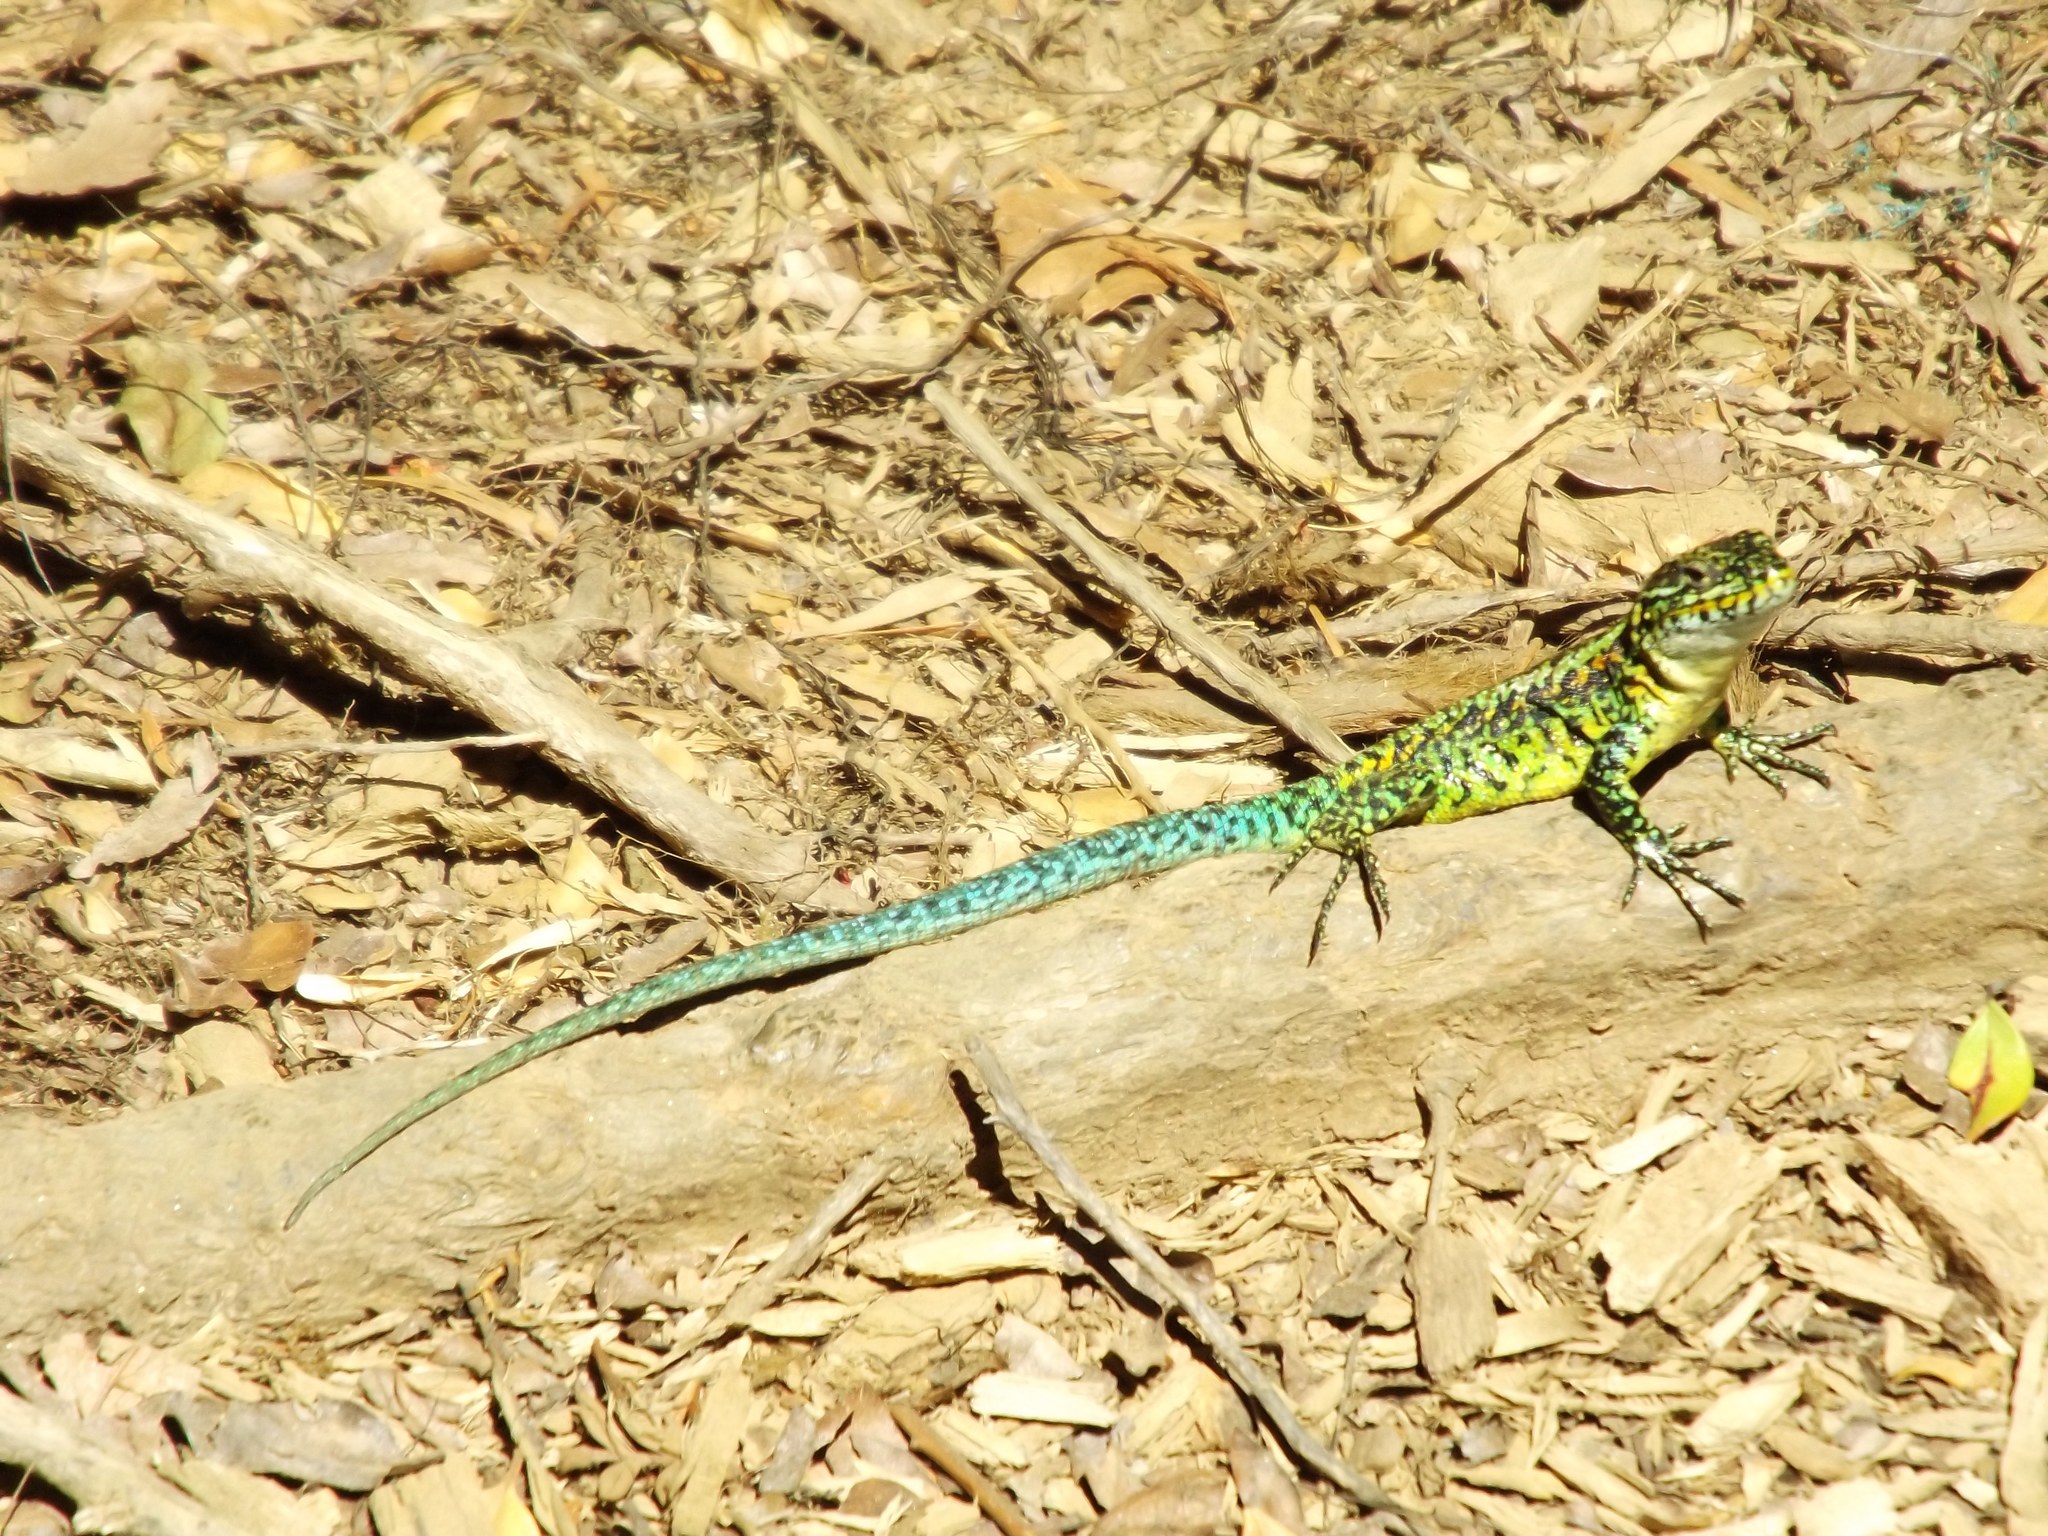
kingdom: Animalia
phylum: Chordata
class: Squamata
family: Liolaemidae
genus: Liolaemus
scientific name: Liolaemus tenuis
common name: Thin tree iguana
